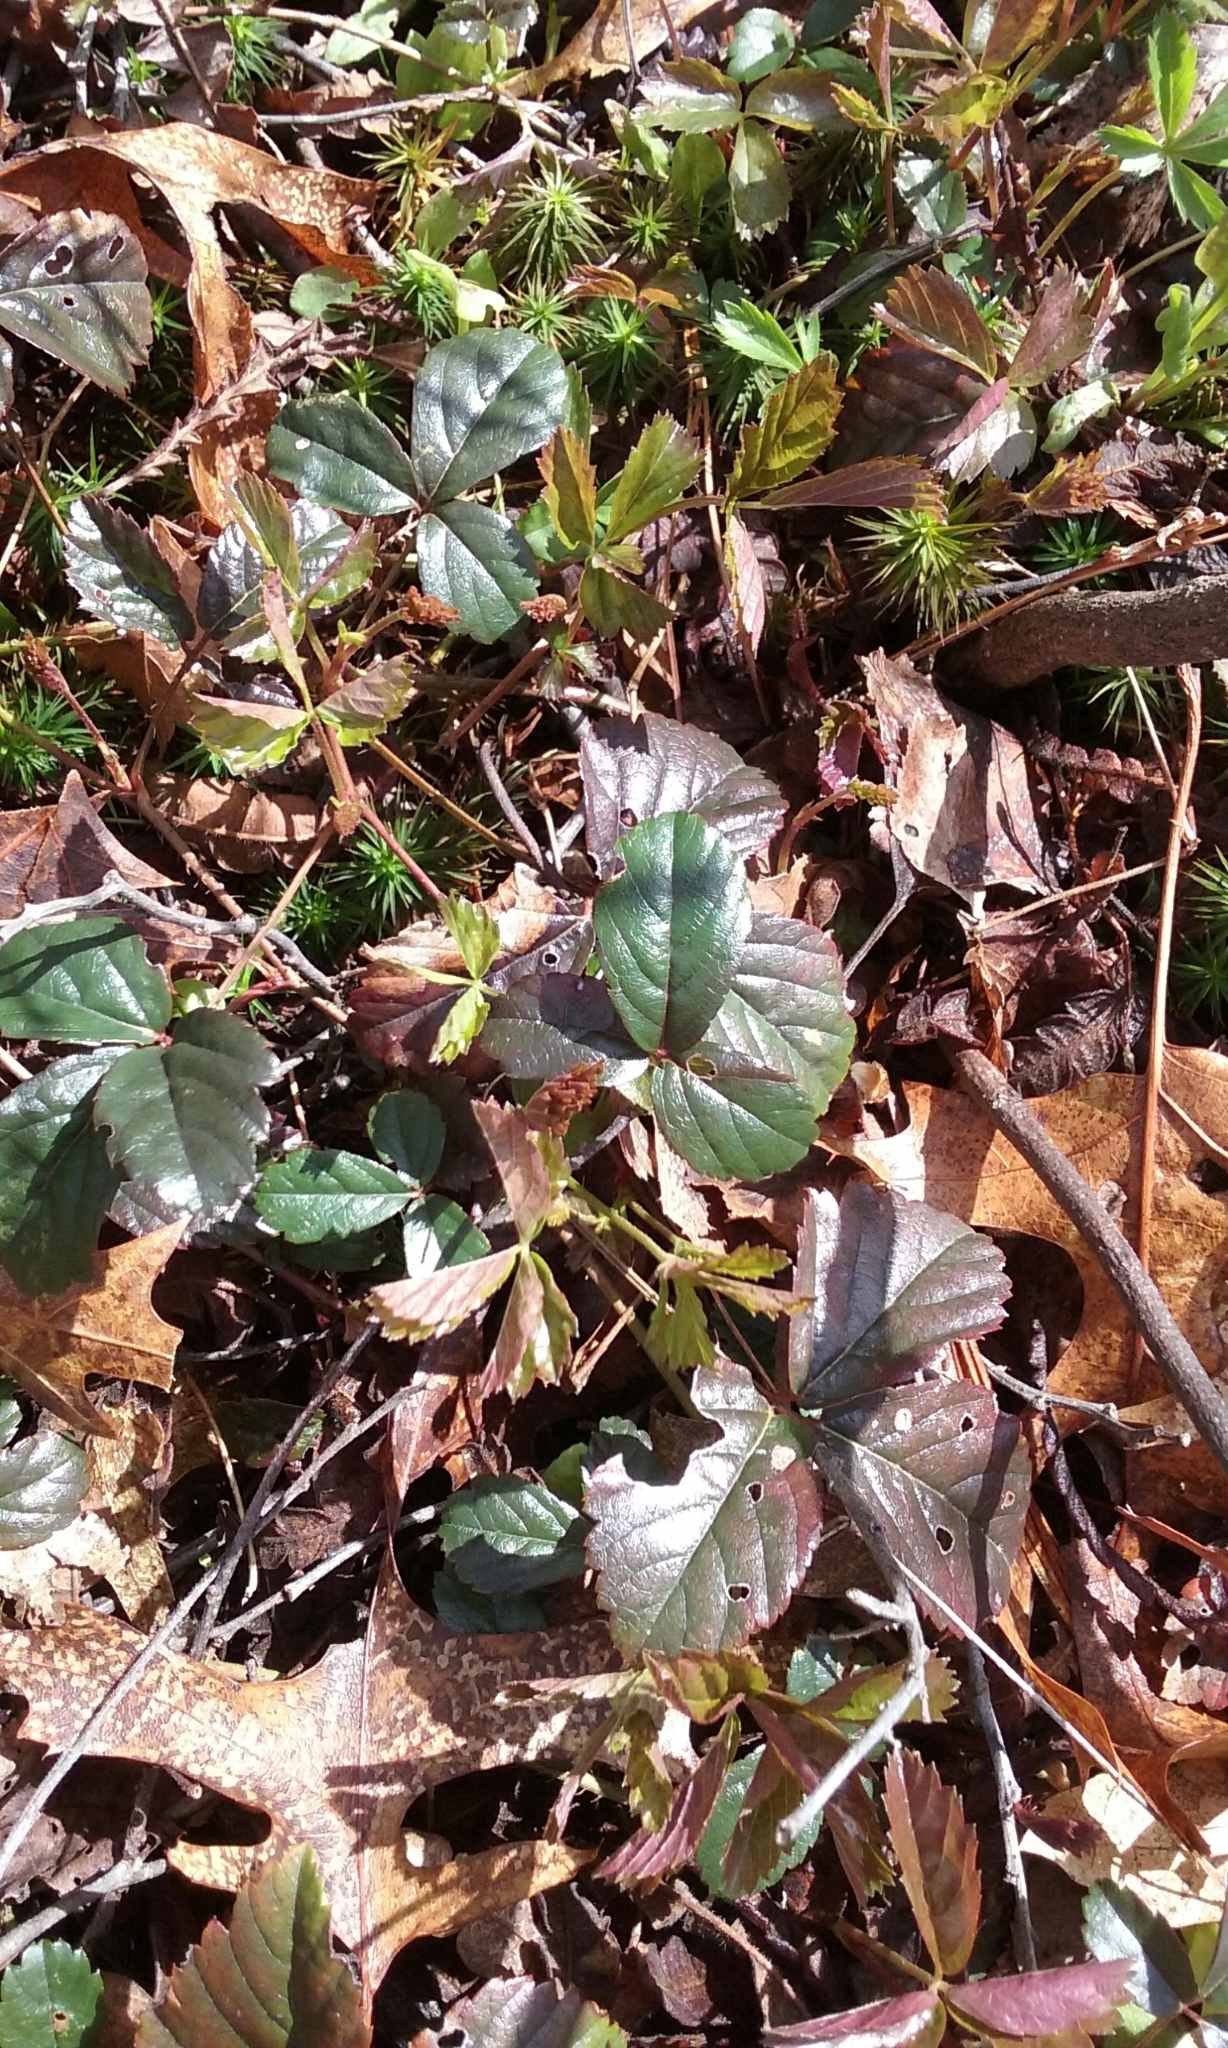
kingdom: Plantae
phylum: Tracheophyta
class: Magnoliopsida
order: Rosales
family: Rosaceae
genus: Rubus
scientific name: Rubus flagellaris
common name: American dewberry
